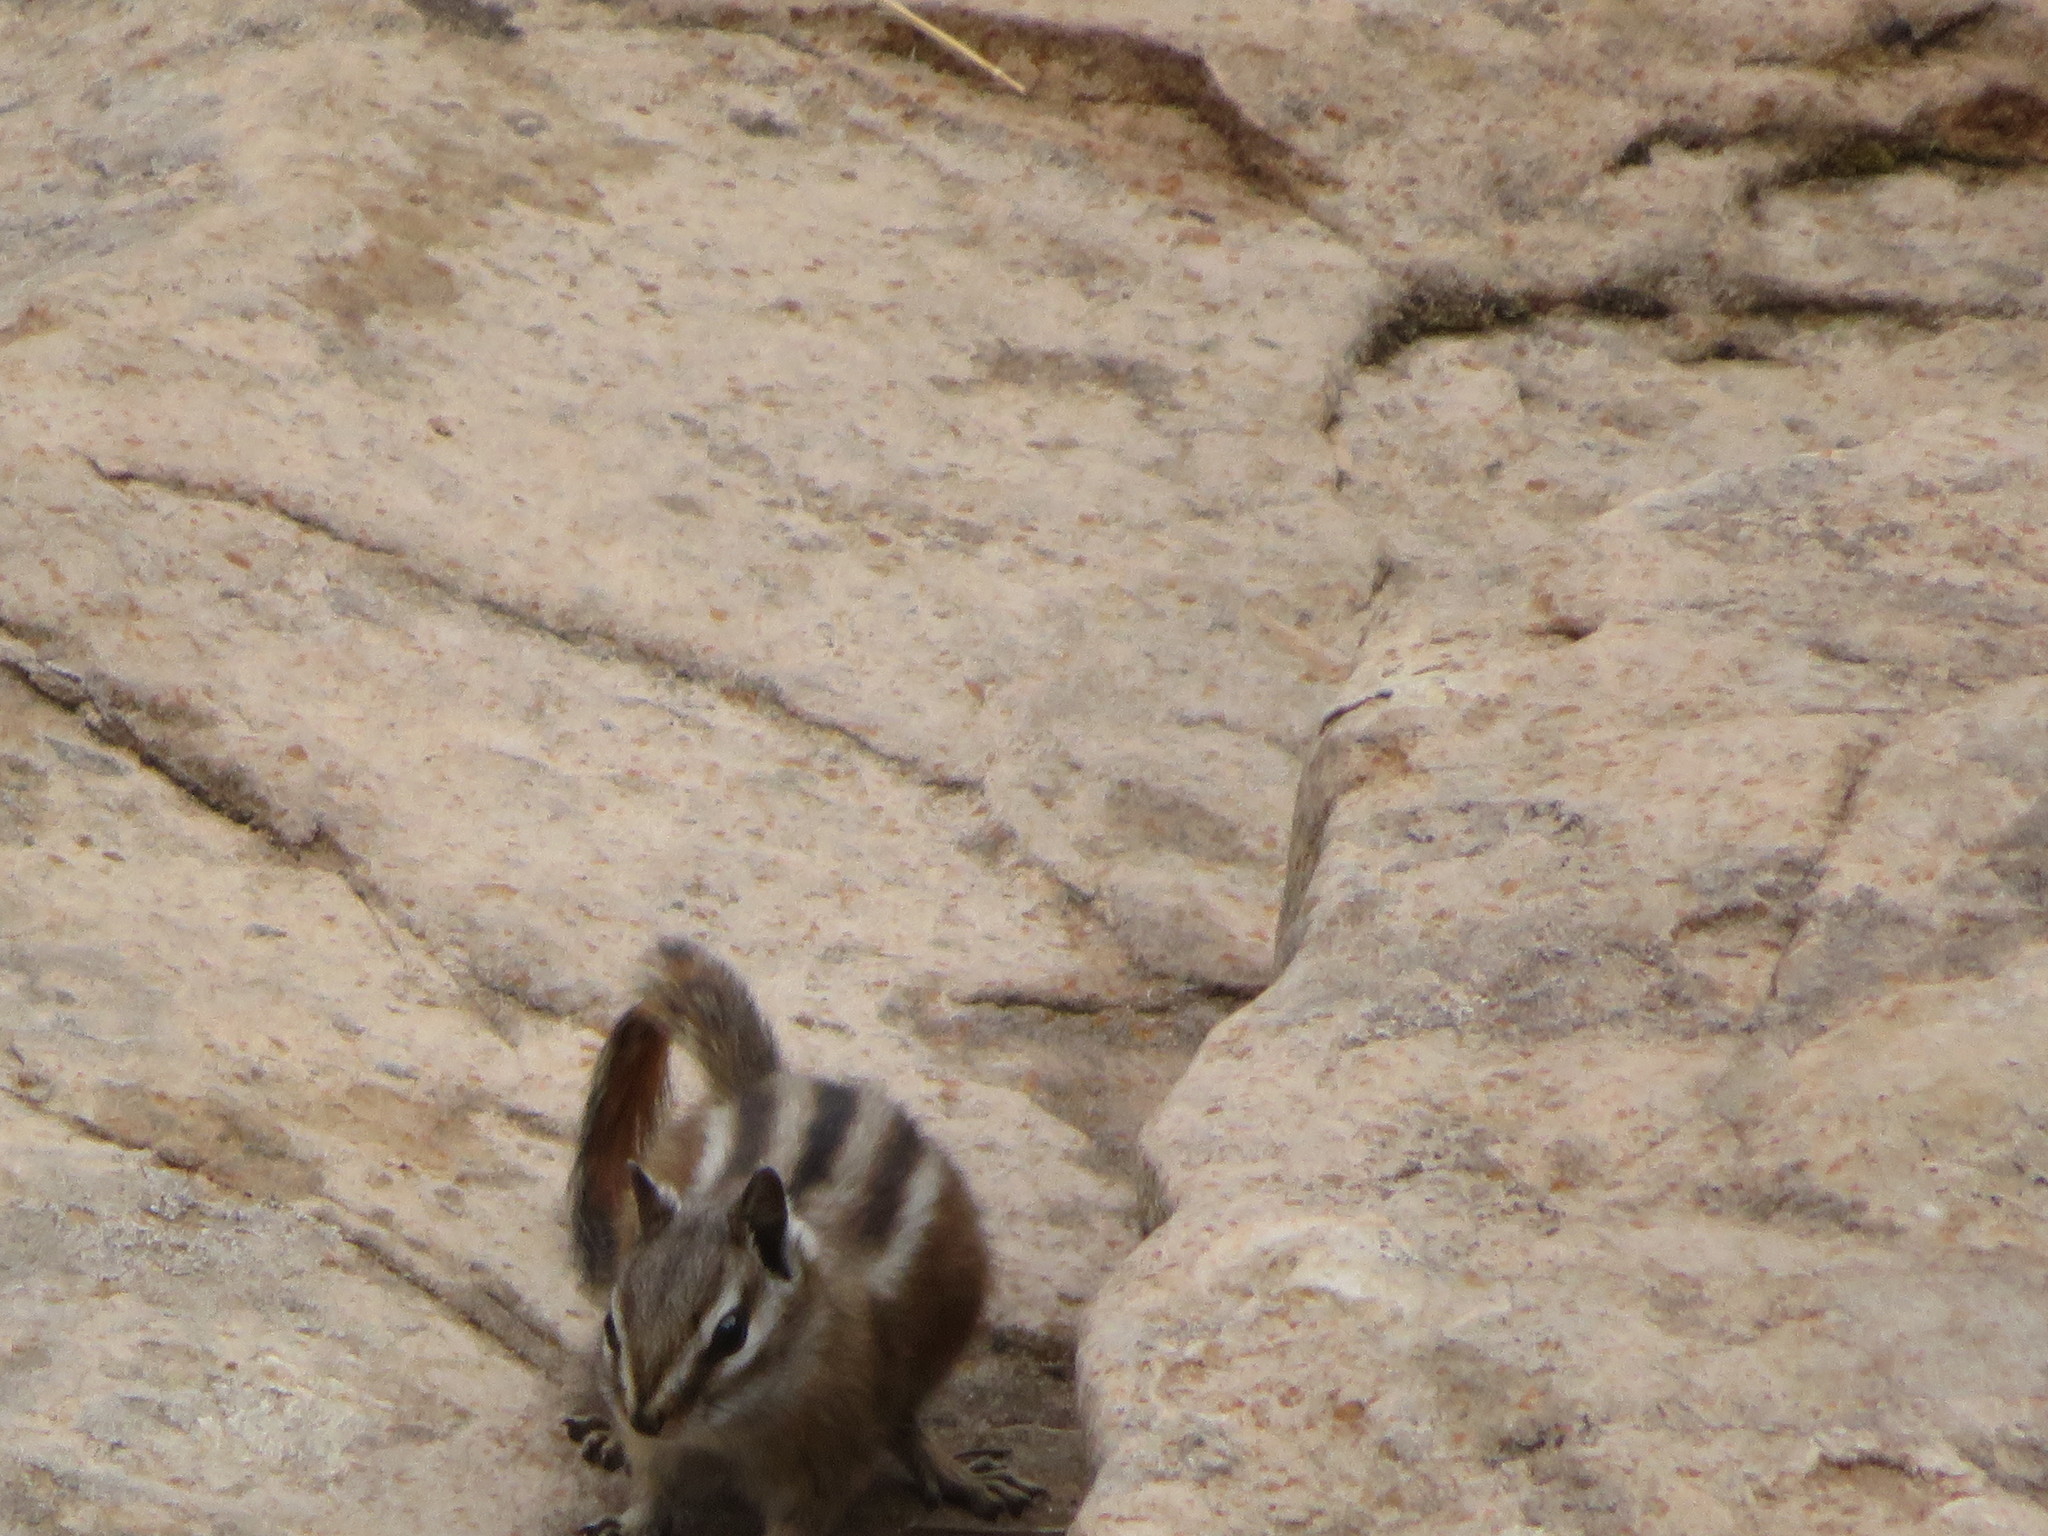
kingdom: Animalia
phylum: Chordata
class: Mammalia
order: Rodentia
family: Sciuridae
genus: Tamias
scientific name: Tamias umbrinus
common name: Uinta chipmunk
